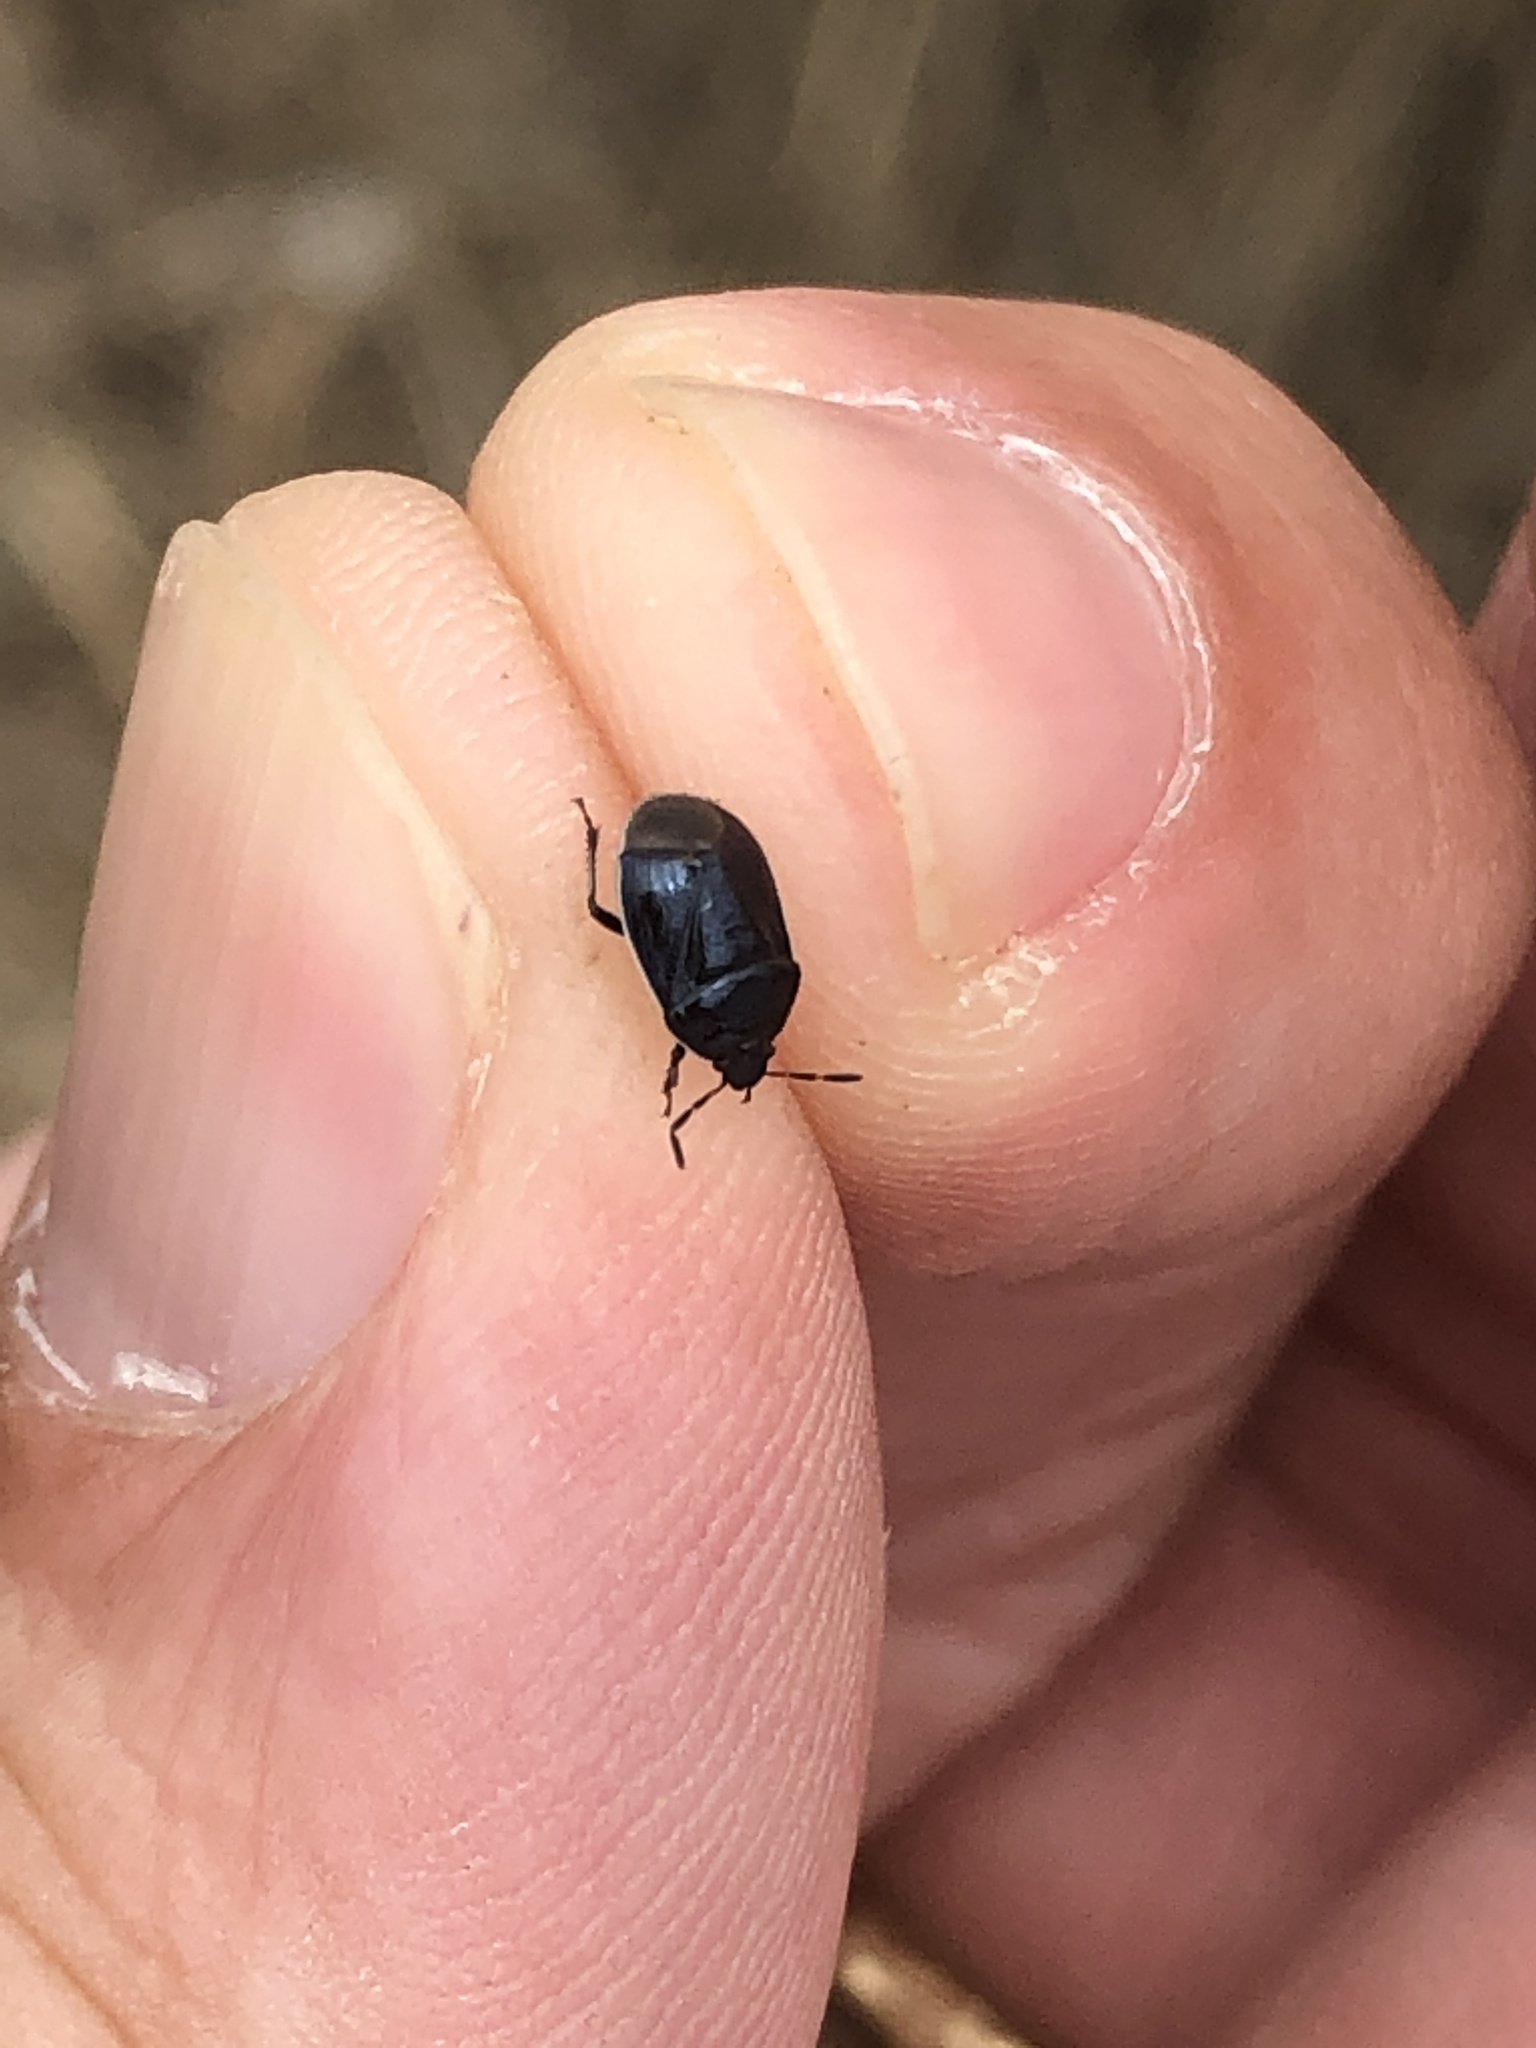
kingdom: Animalia
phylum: Arthropoda
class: Insecta
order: Hemiptera
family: Cydnidae
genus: Sehirus
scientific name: Sehirus cinctus
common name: White-margined burrower bug
